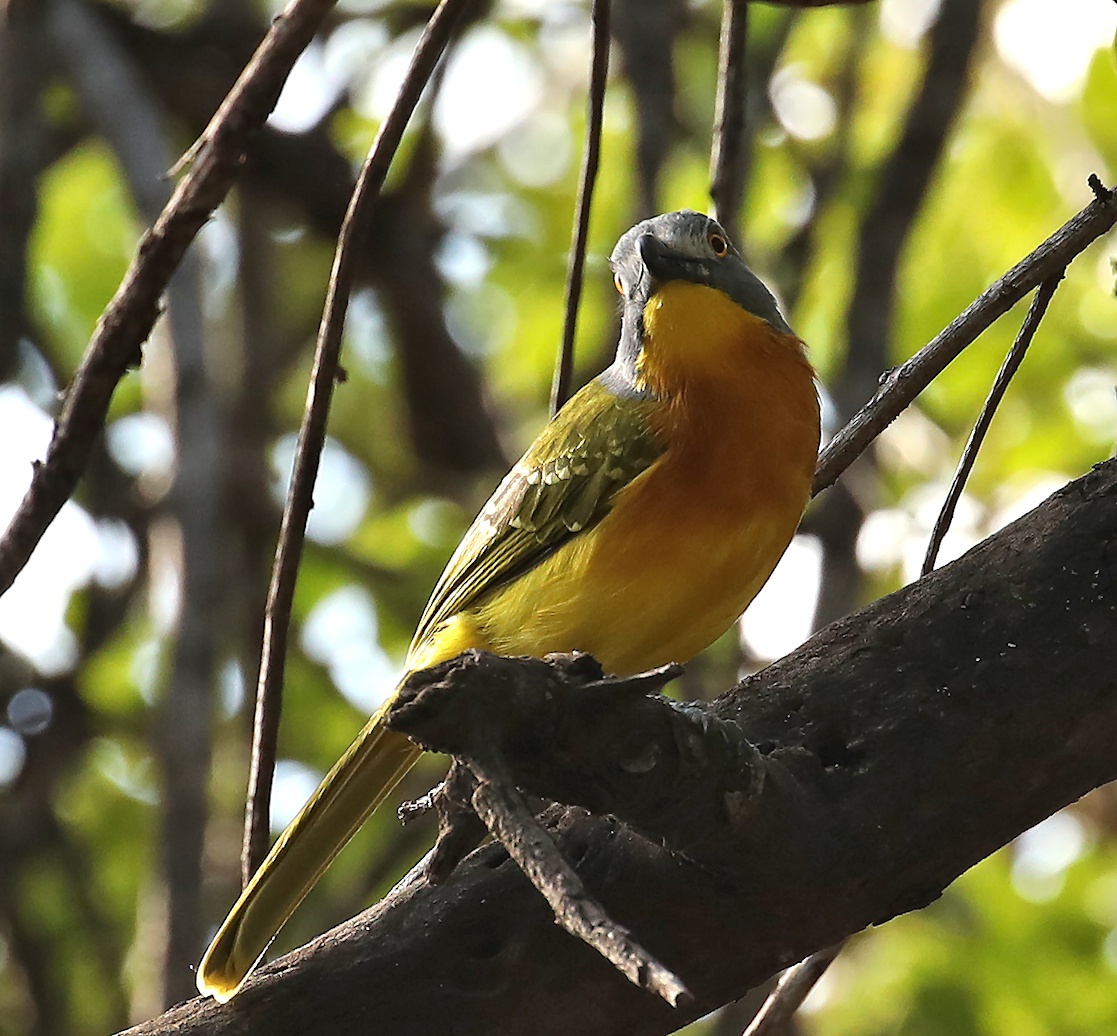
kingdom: Animalia
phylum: Chordata
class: Aves
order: Passeriformes
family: Malaconotidae
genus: Malaconotus
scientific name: Malaconotus blanchoti
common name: Grey-headed bushshrike
